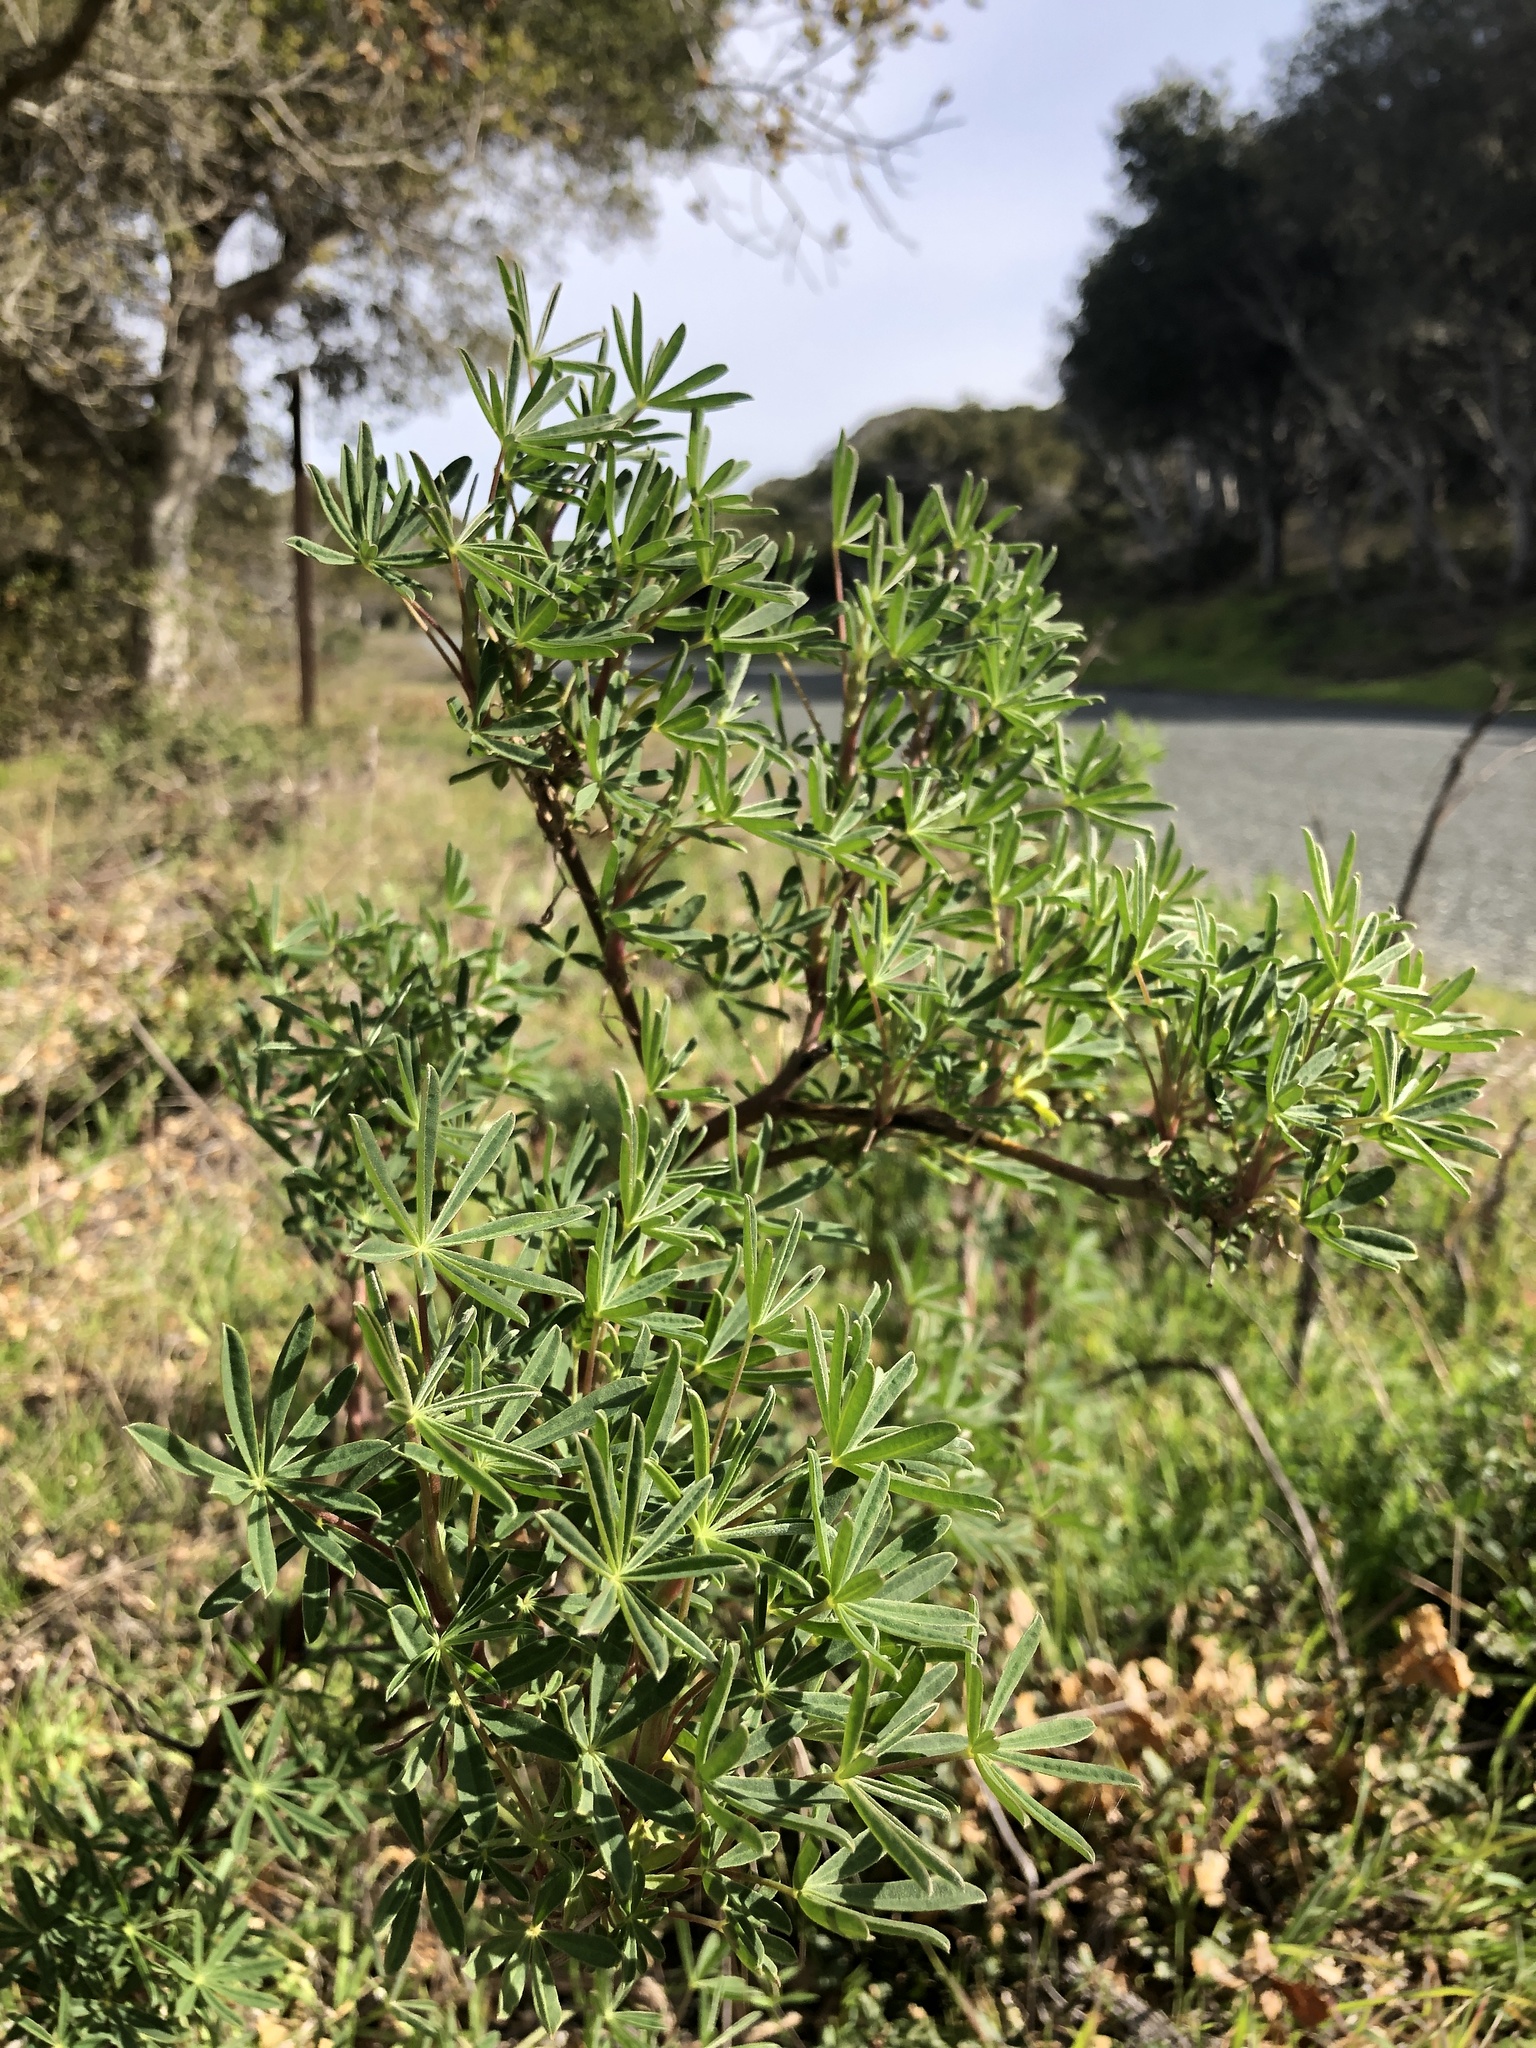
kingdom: Plantae
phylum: Tracheophyta
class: Magnoliopsida
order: Fabales
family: Fabaceae
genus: Lupinus
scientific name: Lupinus arboreus
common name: Yellow bush lupine
